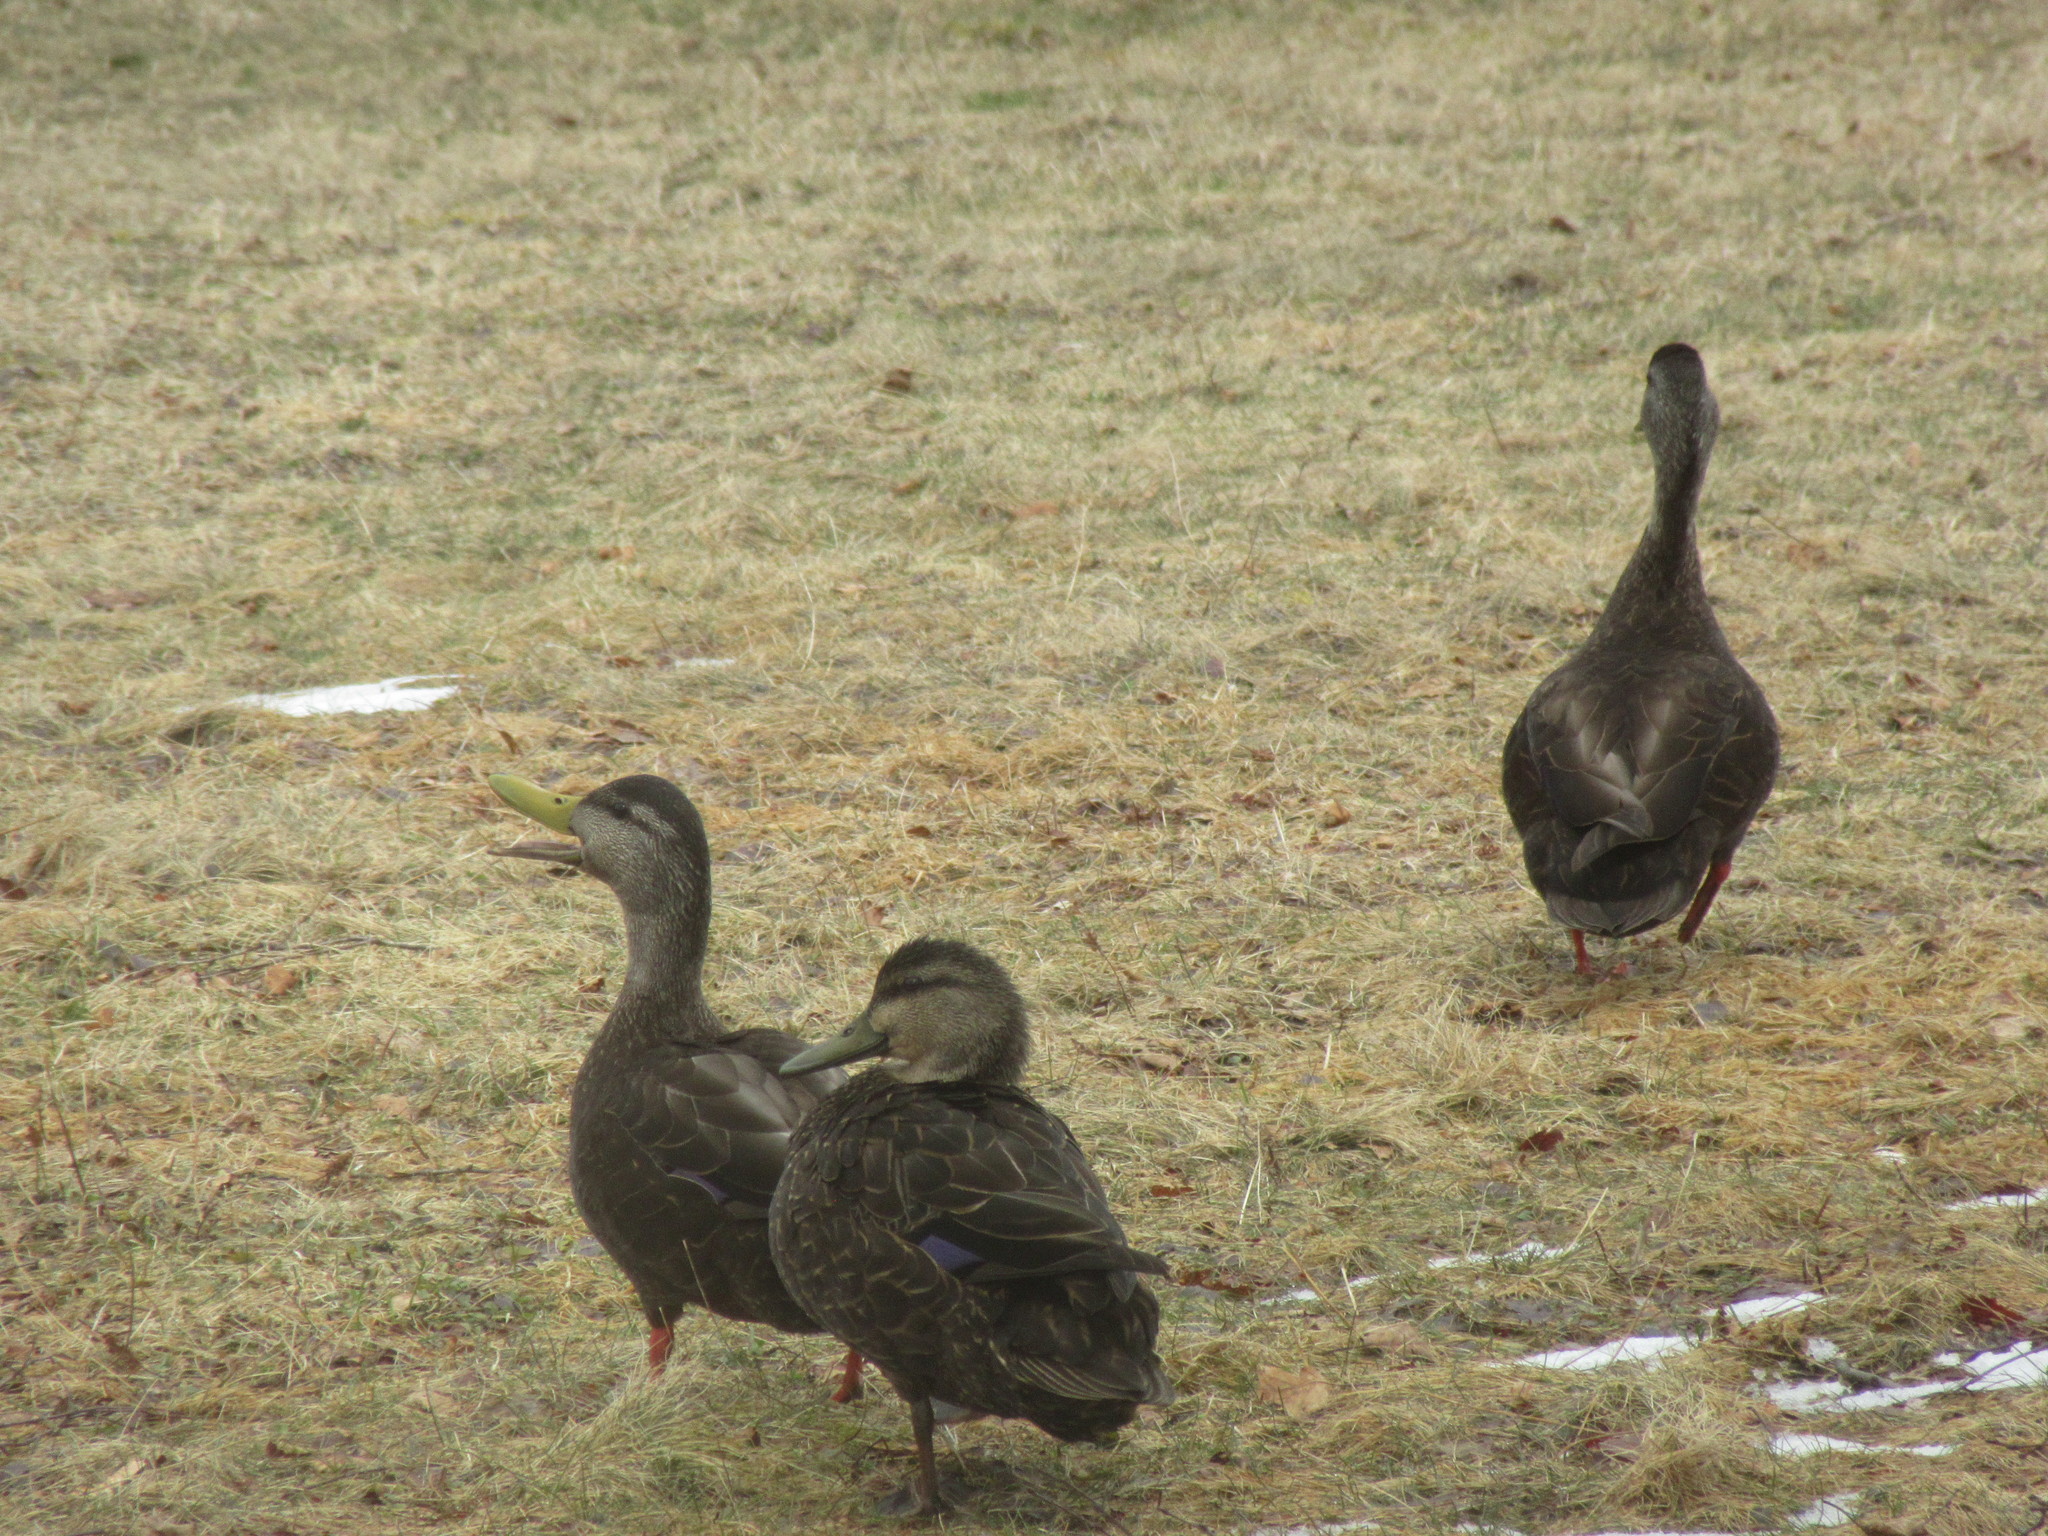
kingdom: Animalia
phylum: Chordata
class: Aves
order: Anseriformes
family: Anatidae
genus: Anas
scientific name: Anas rubripes
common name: American black duck
